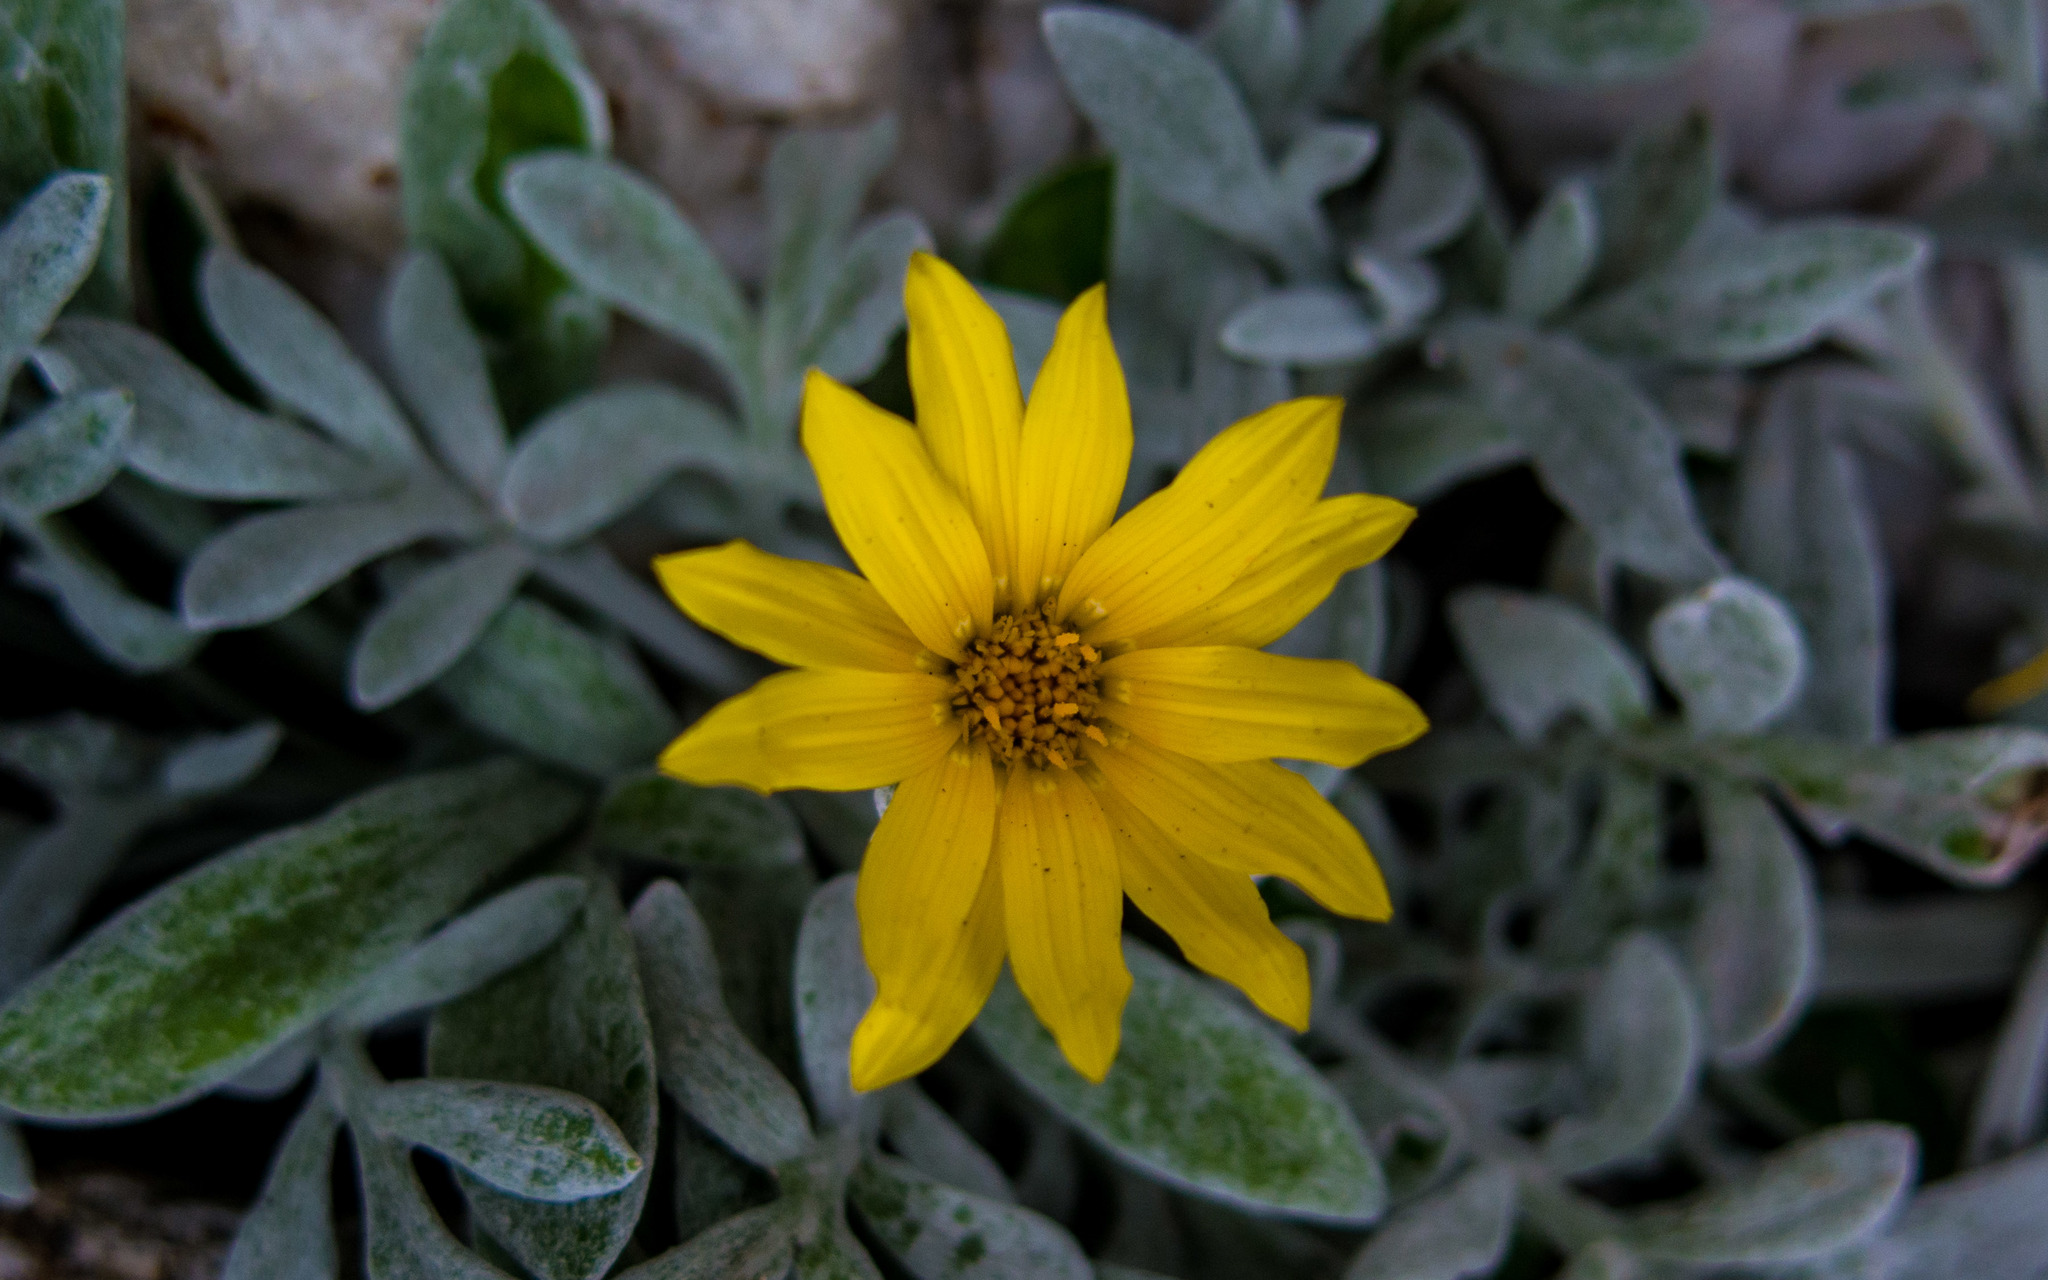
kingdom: Plantae
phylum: Tracheophyta
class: Magnoliopsida
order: Asterales
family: Asteraceae
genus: Gazania
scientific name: Gazania rigens
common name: Treasureflower
